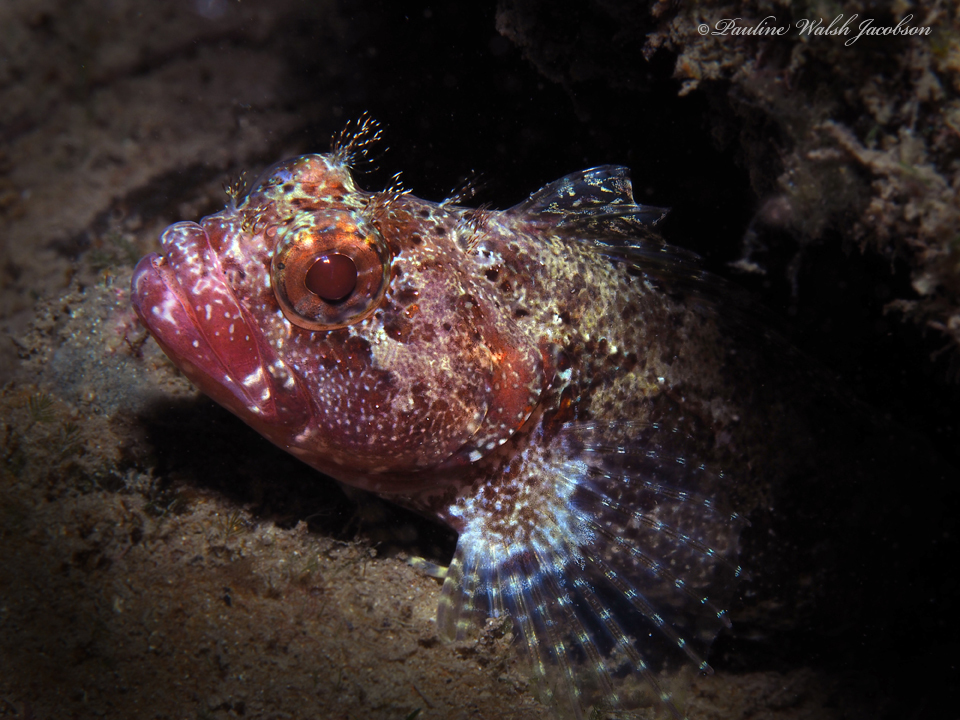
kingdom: Animalia
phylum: Chordata
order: Perciformes
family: Labrisomidae
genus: Gobioclinus
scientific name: Gobioclinus kalisherae
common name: Downy blenny
